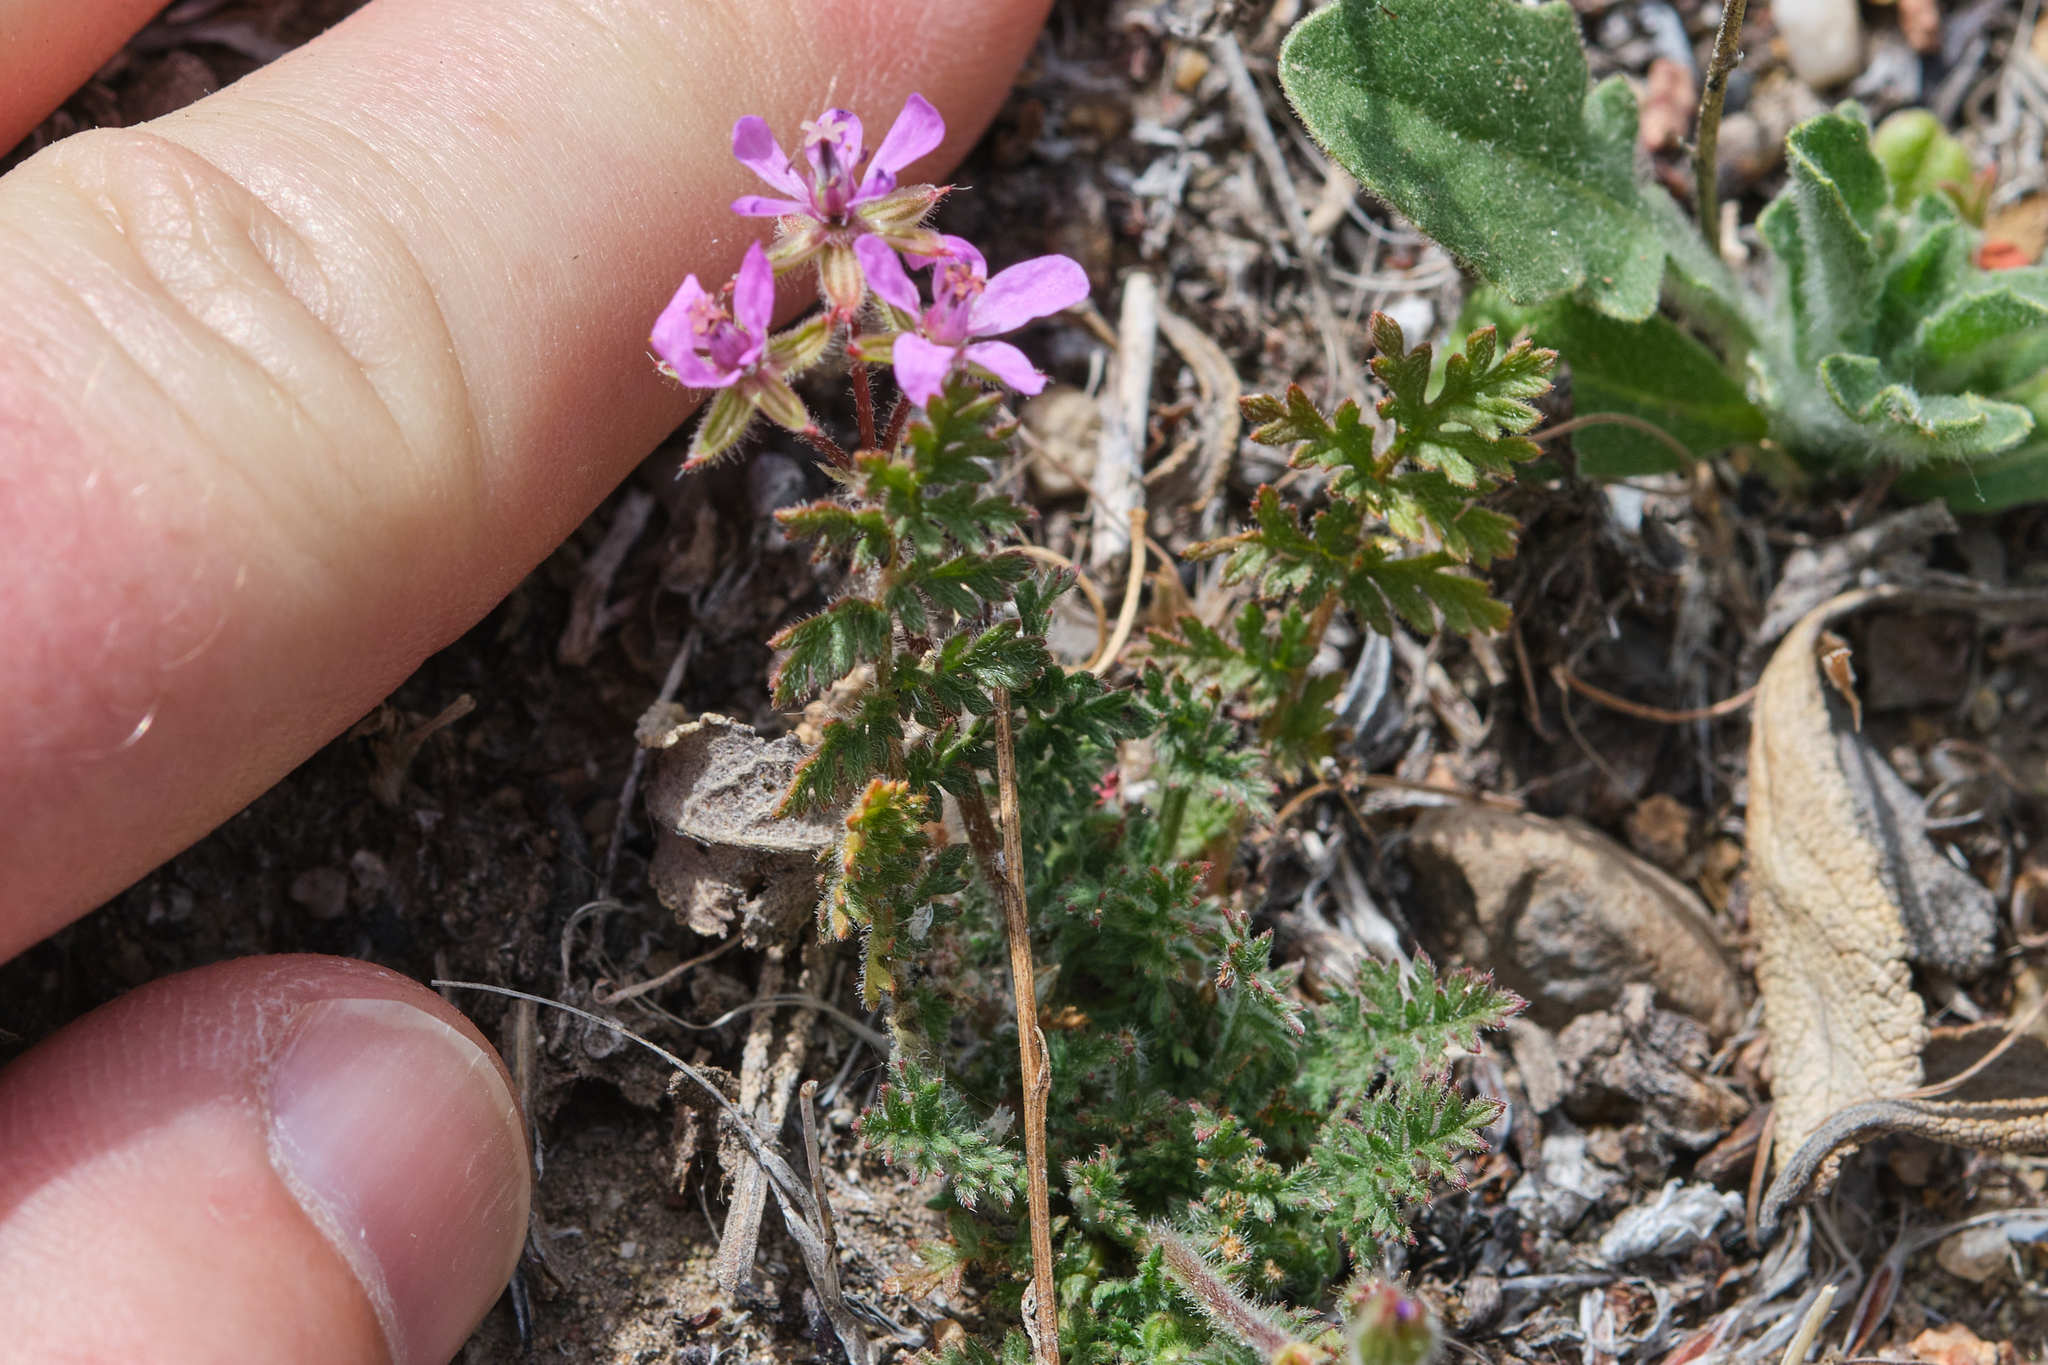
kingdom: Plantae
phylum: Tracheophyta
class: Magnoliopsida
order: Geraniales
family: Geraniaceae
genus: Erodium
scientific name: Erodium cicutarium
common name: Common stork's-bill
